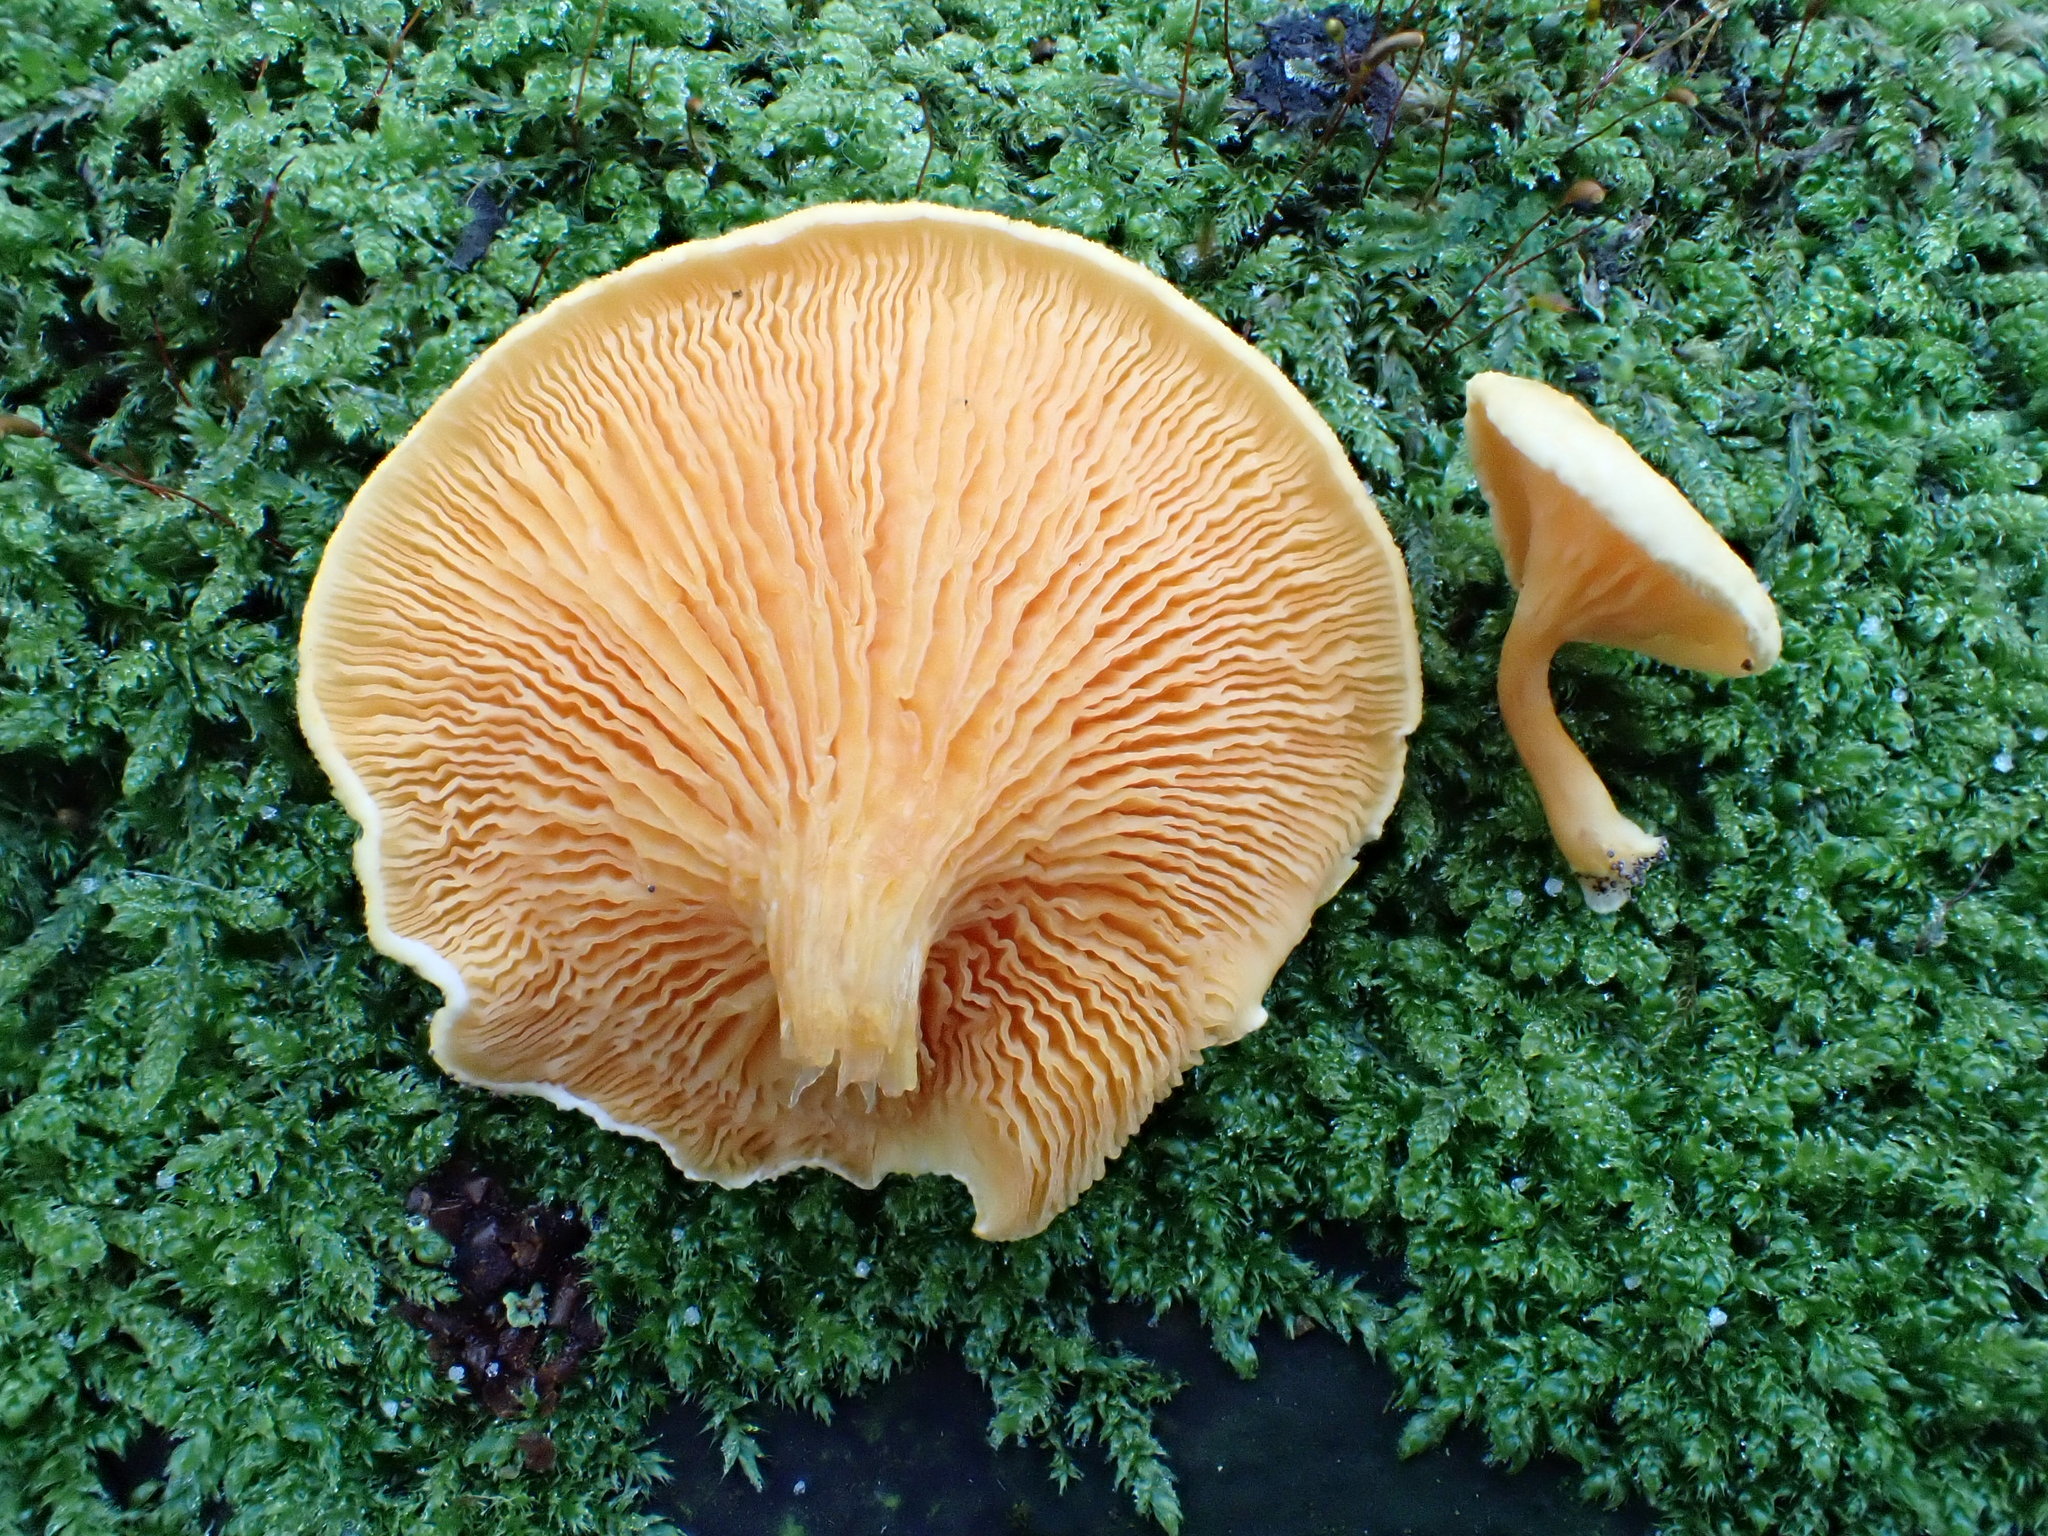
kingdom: Fungi
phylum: Basidiomycota
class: Agaricomycetes
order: Boletales
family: Hygrophoropsidaceae
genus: Hygrophoropsis
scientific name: Hygrophoropsis aurantiaca
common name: False chanterelle
